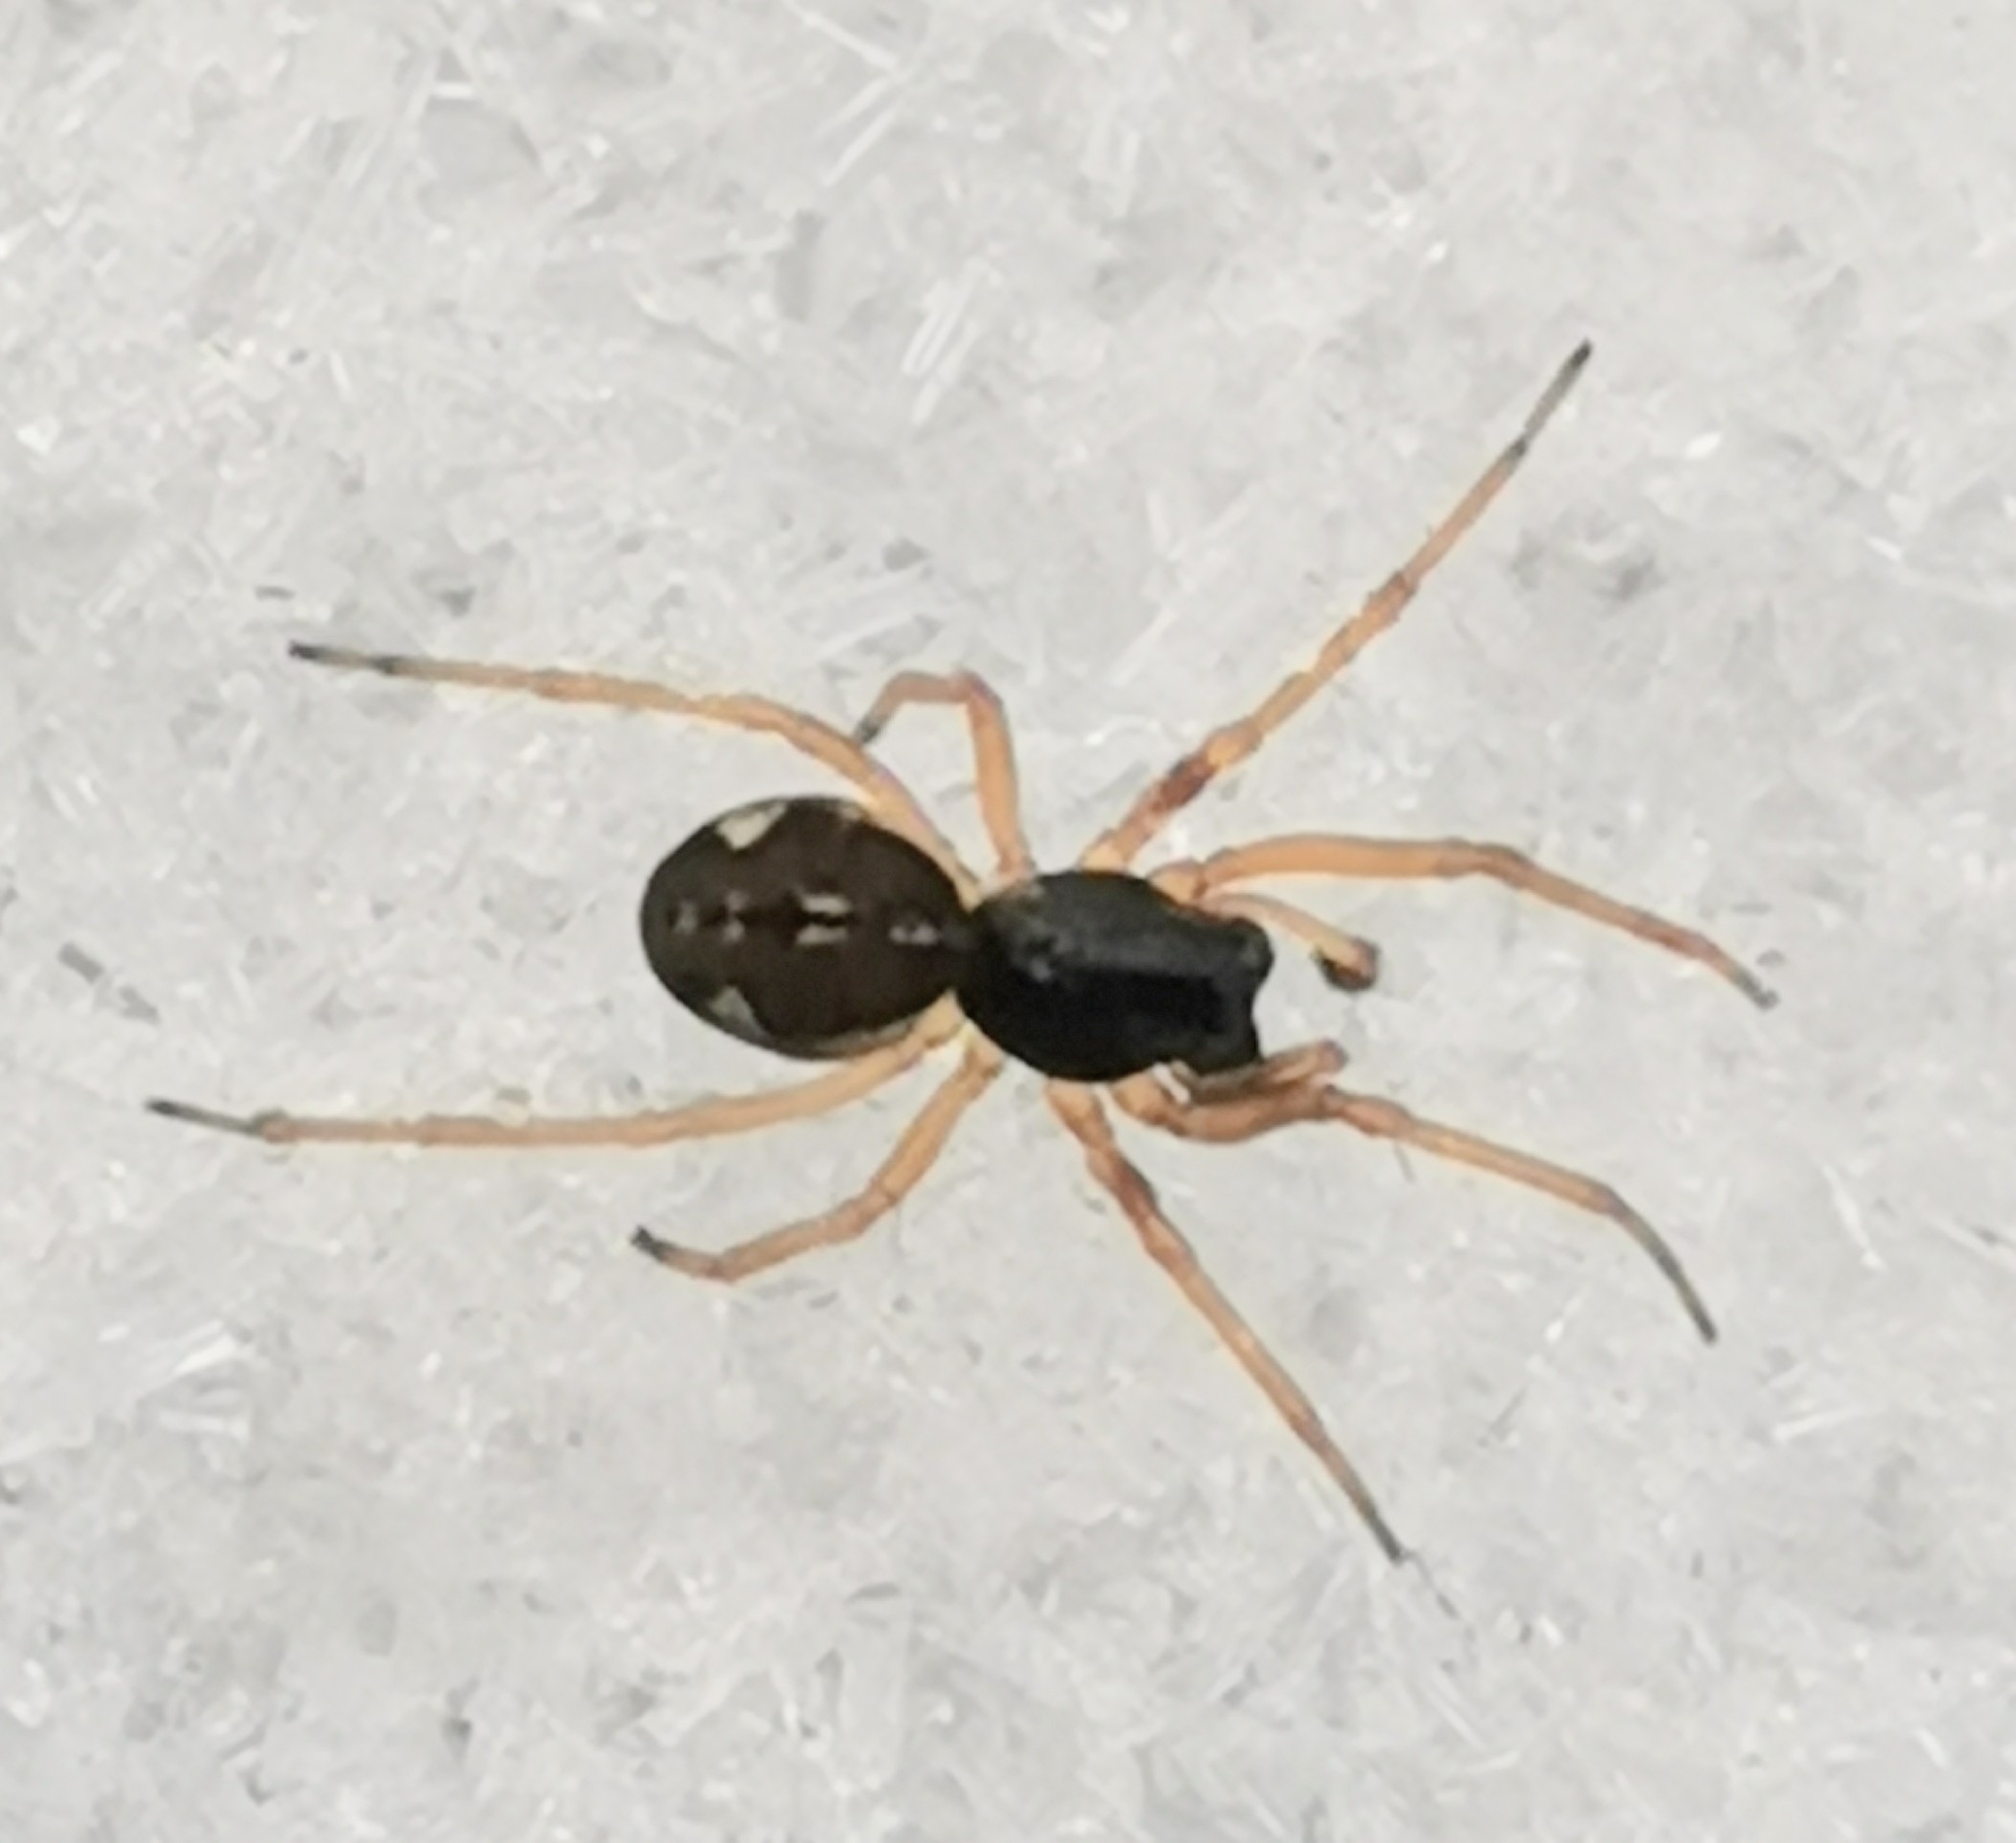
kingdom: Animalia
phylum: Arthropoda
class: Arachnida
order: Araneae
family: Tetragnathidae
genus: Pachygnatha
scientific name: Pachygnatha degeeri
